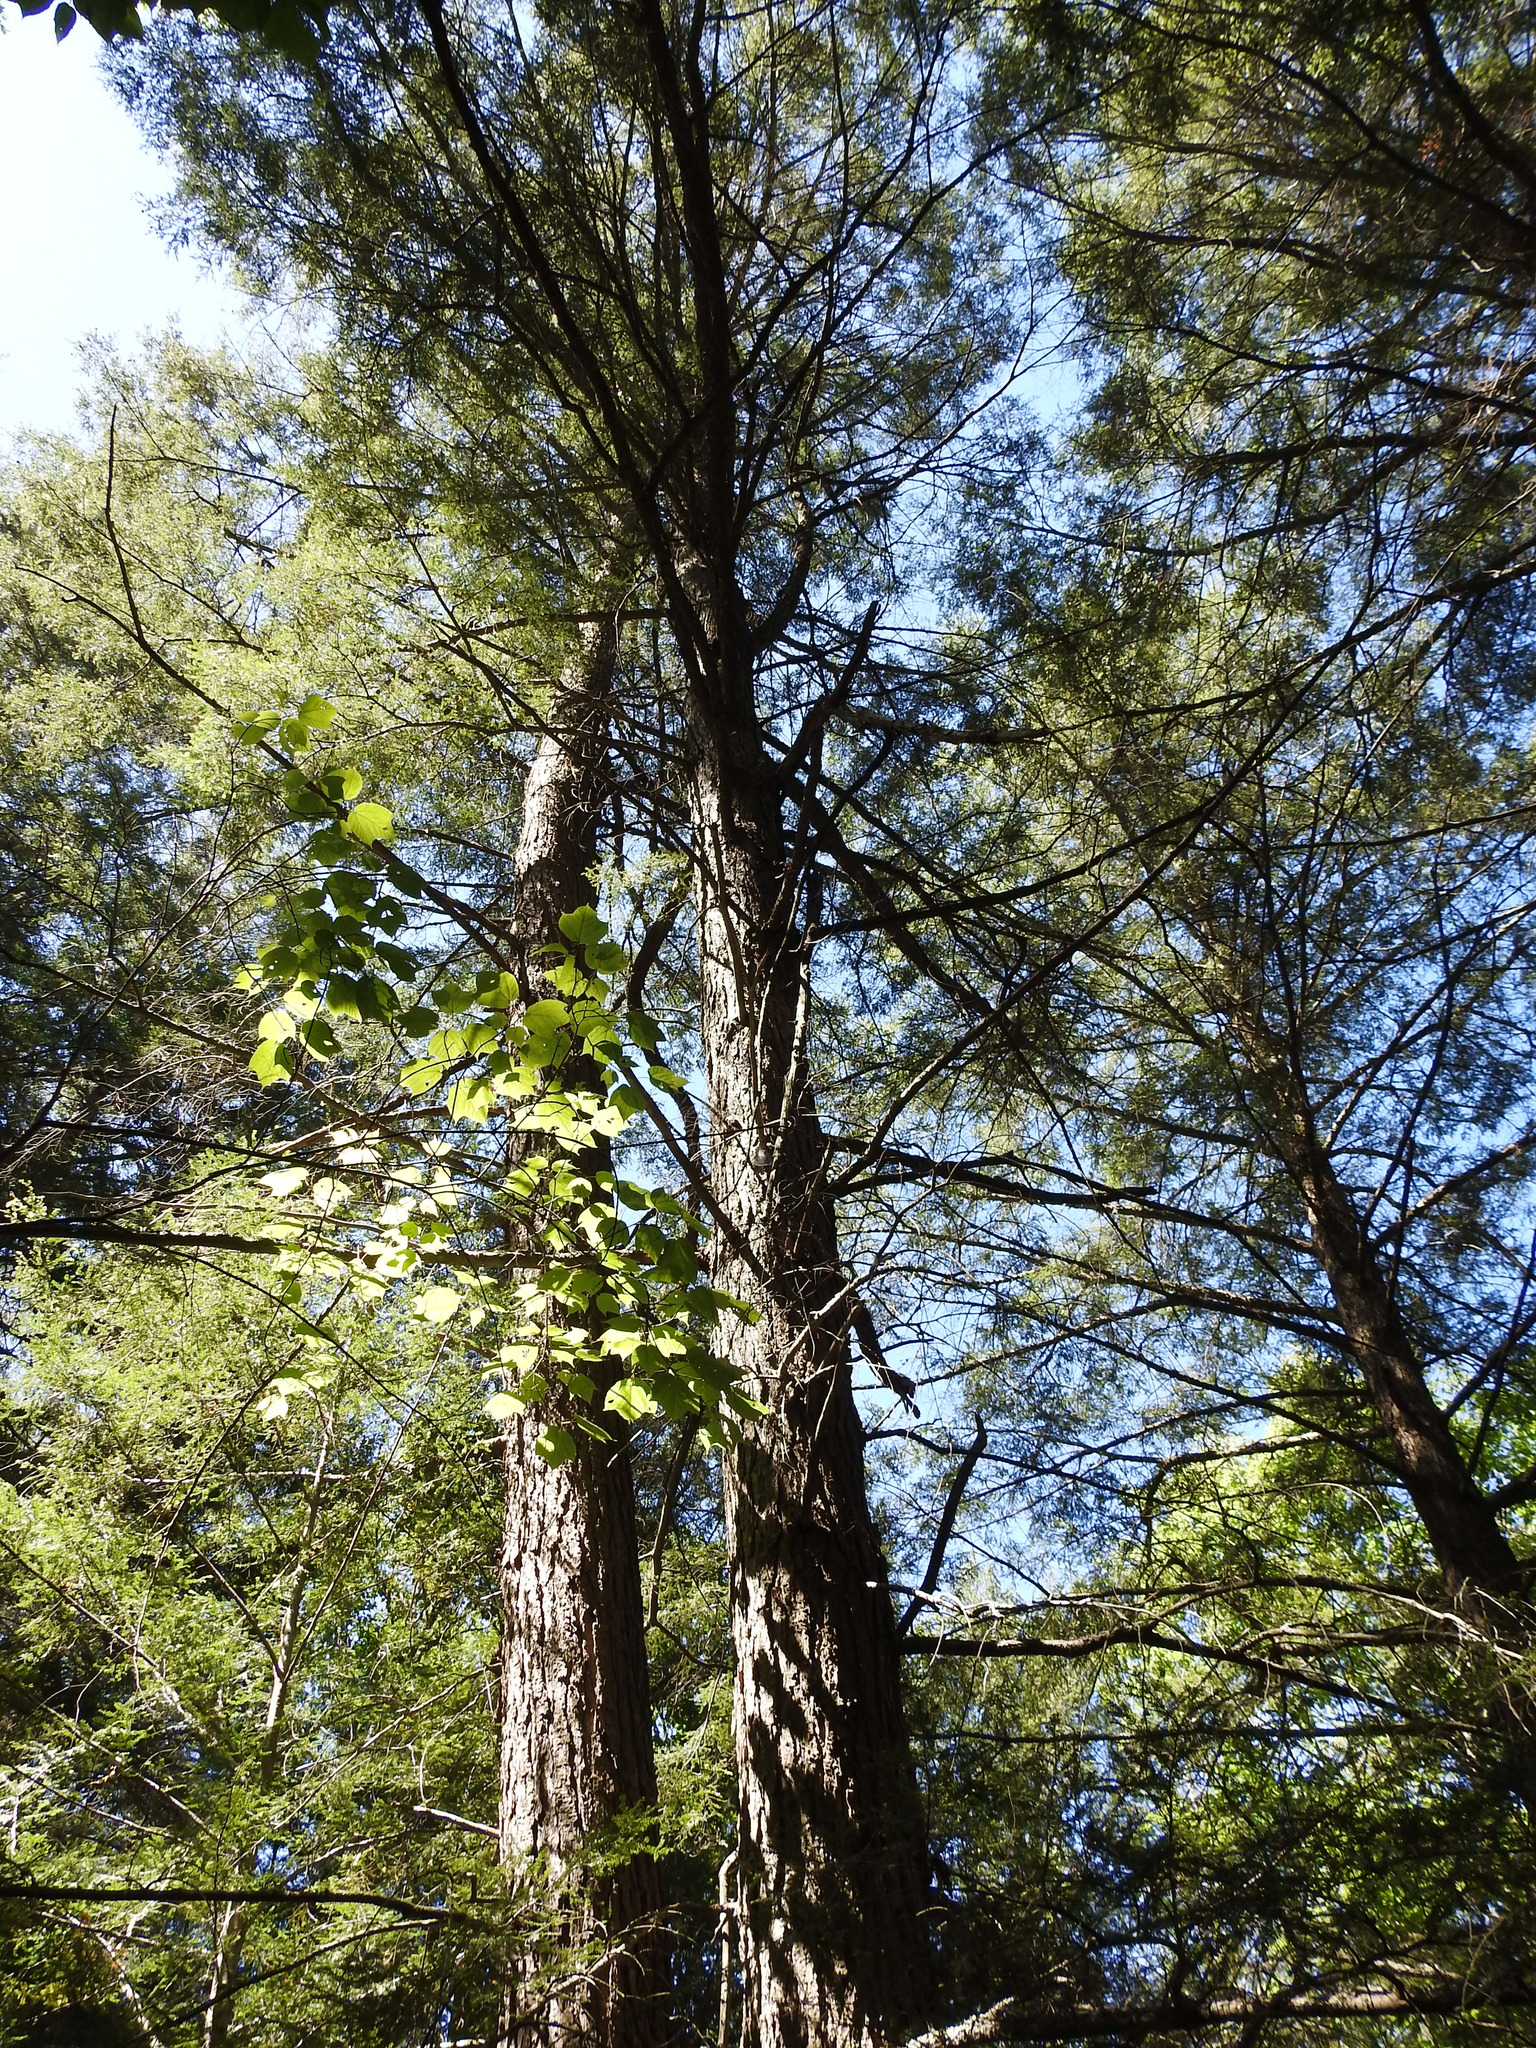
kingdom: Plantae
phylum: Tracheophyta
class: Pinopsida
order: Pinales
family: Pinaceae
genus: Tsuga
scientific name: Tsuga canadensis
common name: Eastern hemlock
